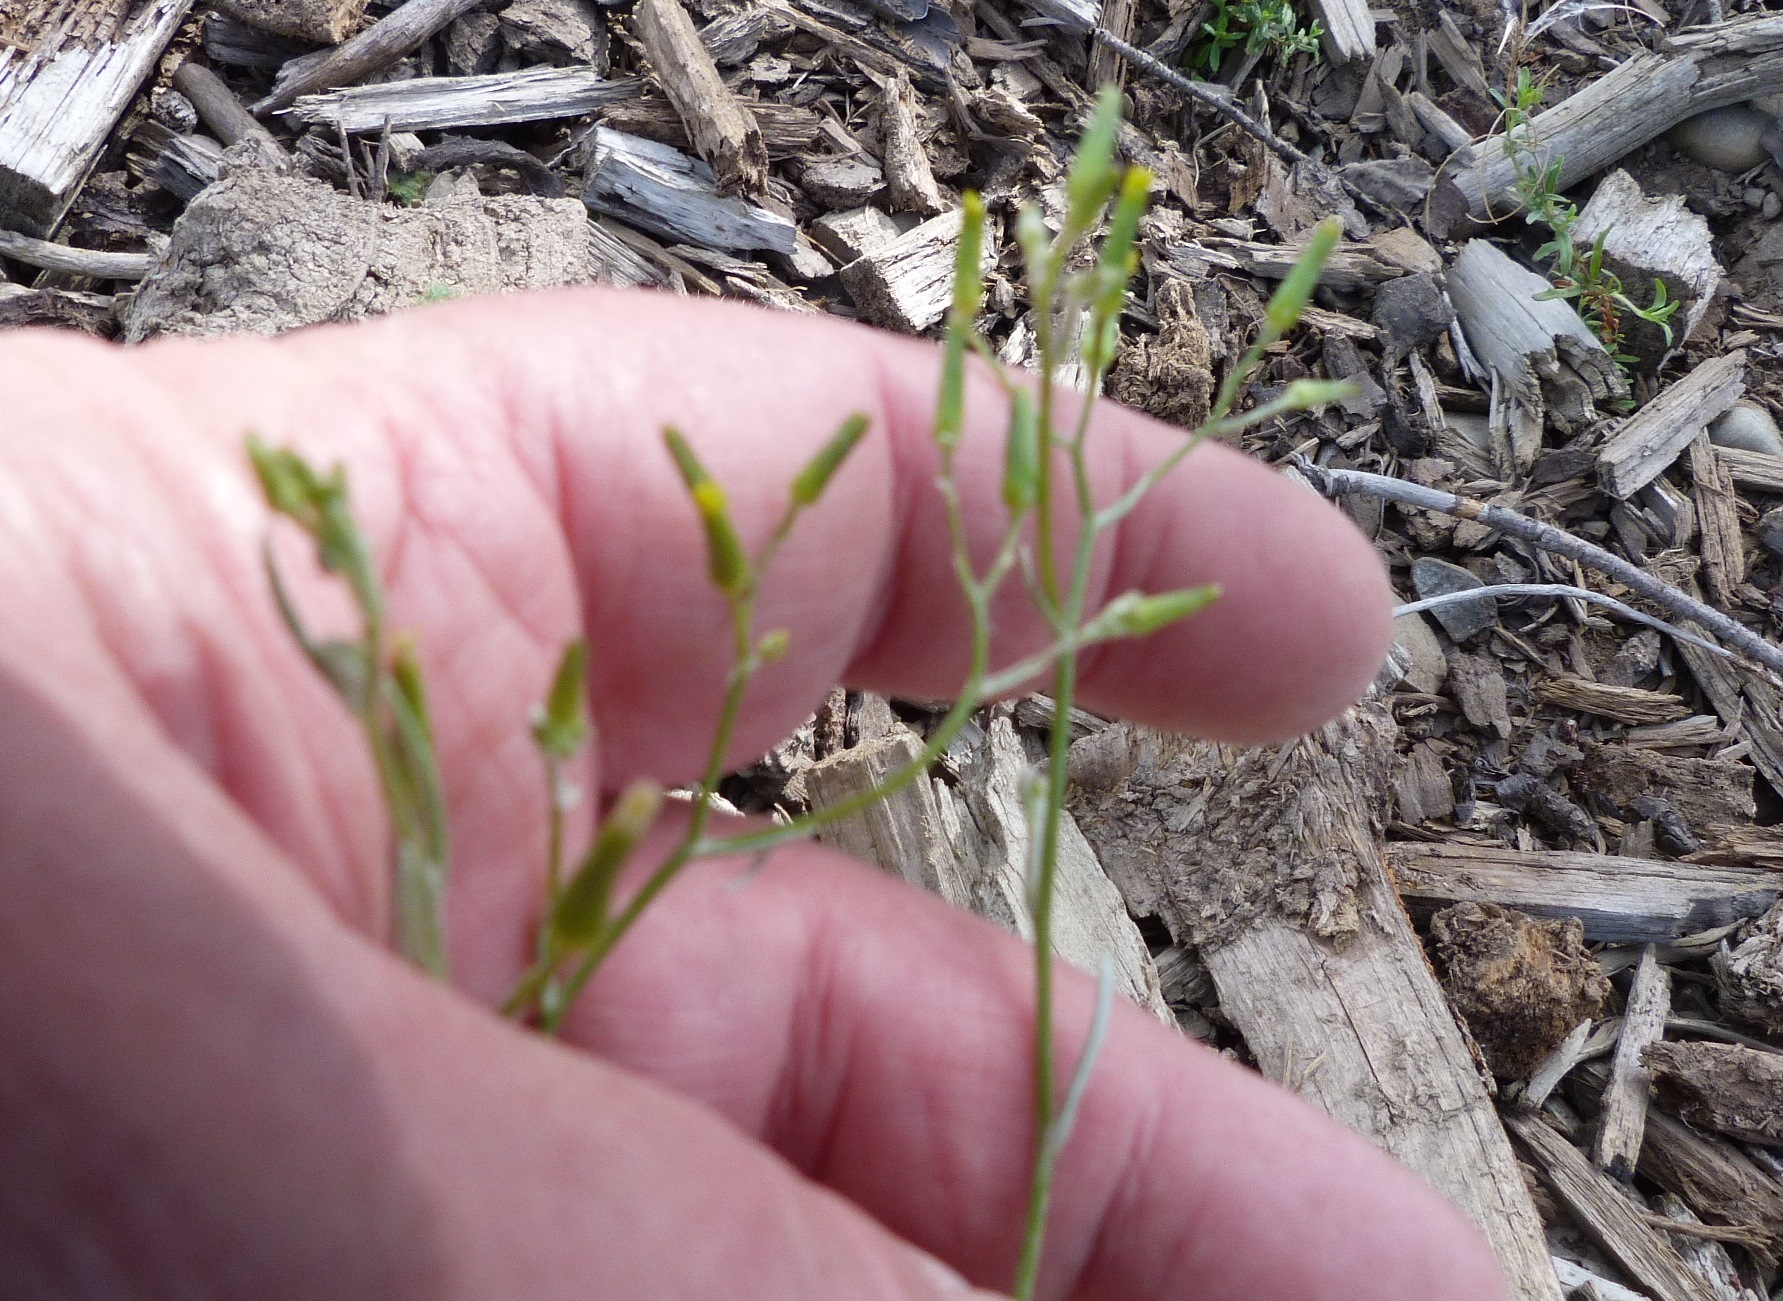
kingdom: Plantae
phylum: Tracheophyta
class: Magnoliopsida
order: Asterales
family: Asteraceae
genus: Senecio
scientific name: Senecio quadridentatus
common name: Cotton fireweed
